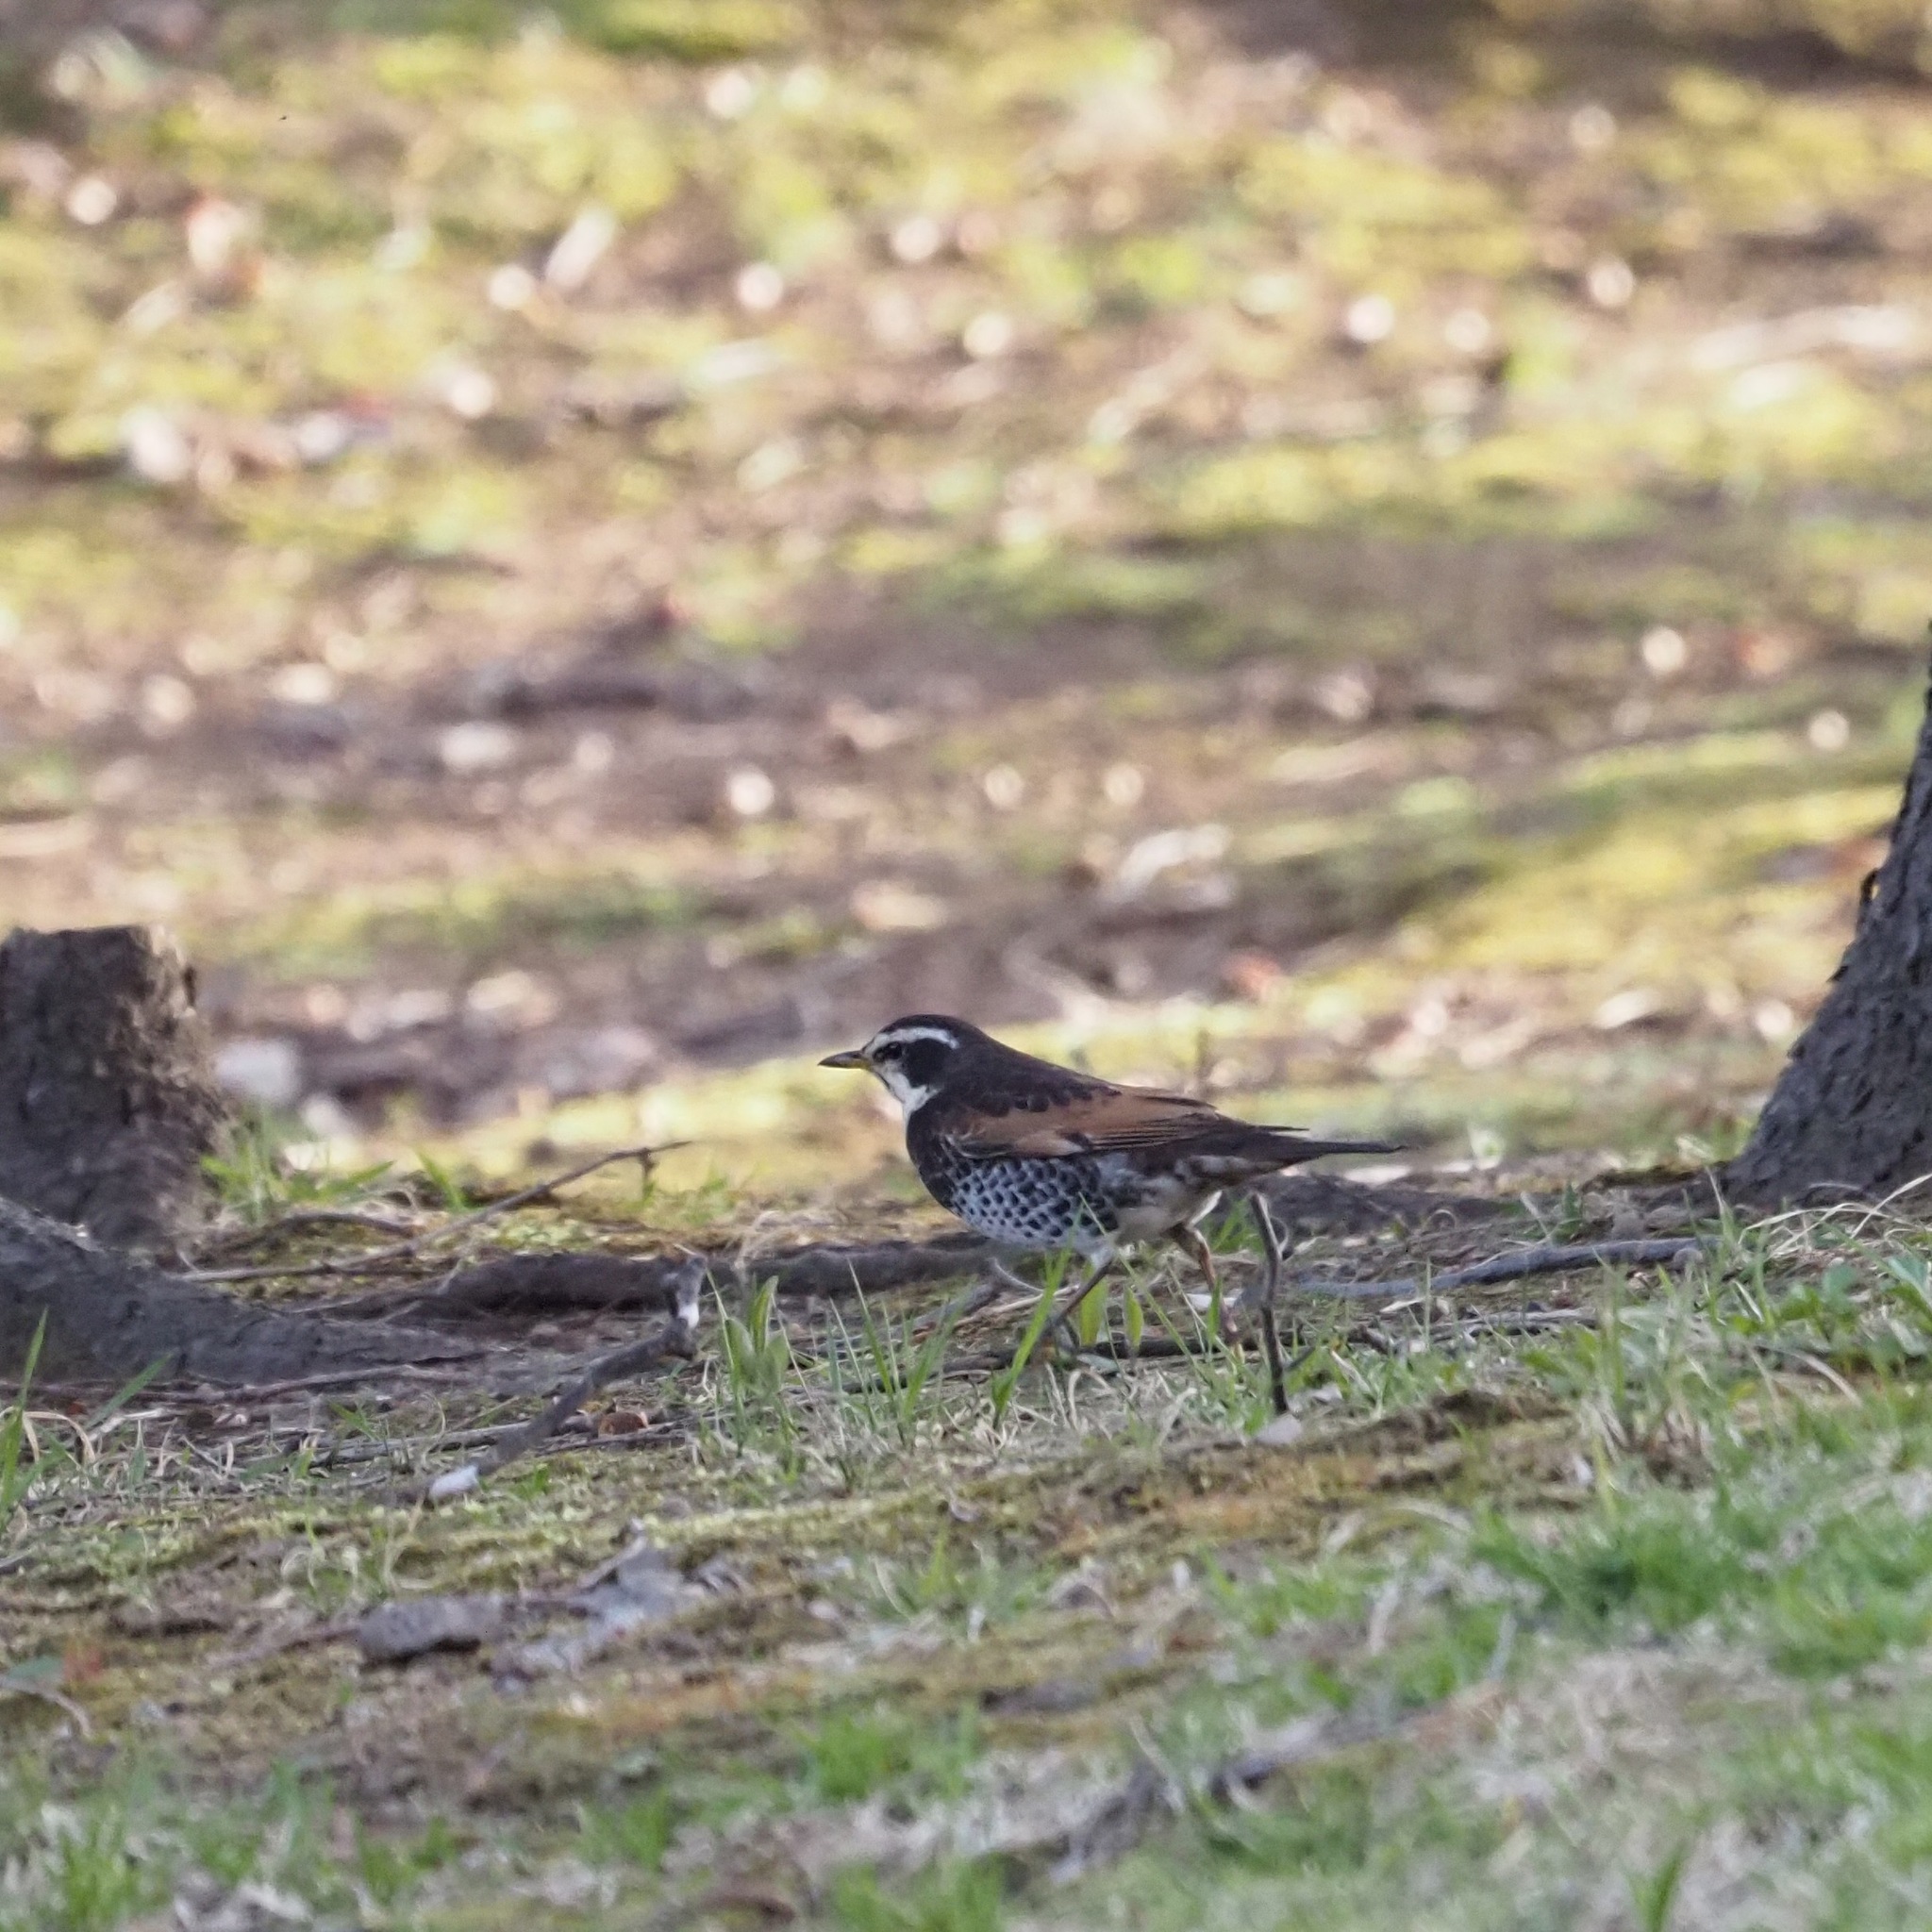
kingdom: Animalia
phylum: Chordata
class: Aves
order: Passeriformes
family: Turdidae
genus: Turdus
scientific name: Turdus eunomus
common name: Dusky thrush
